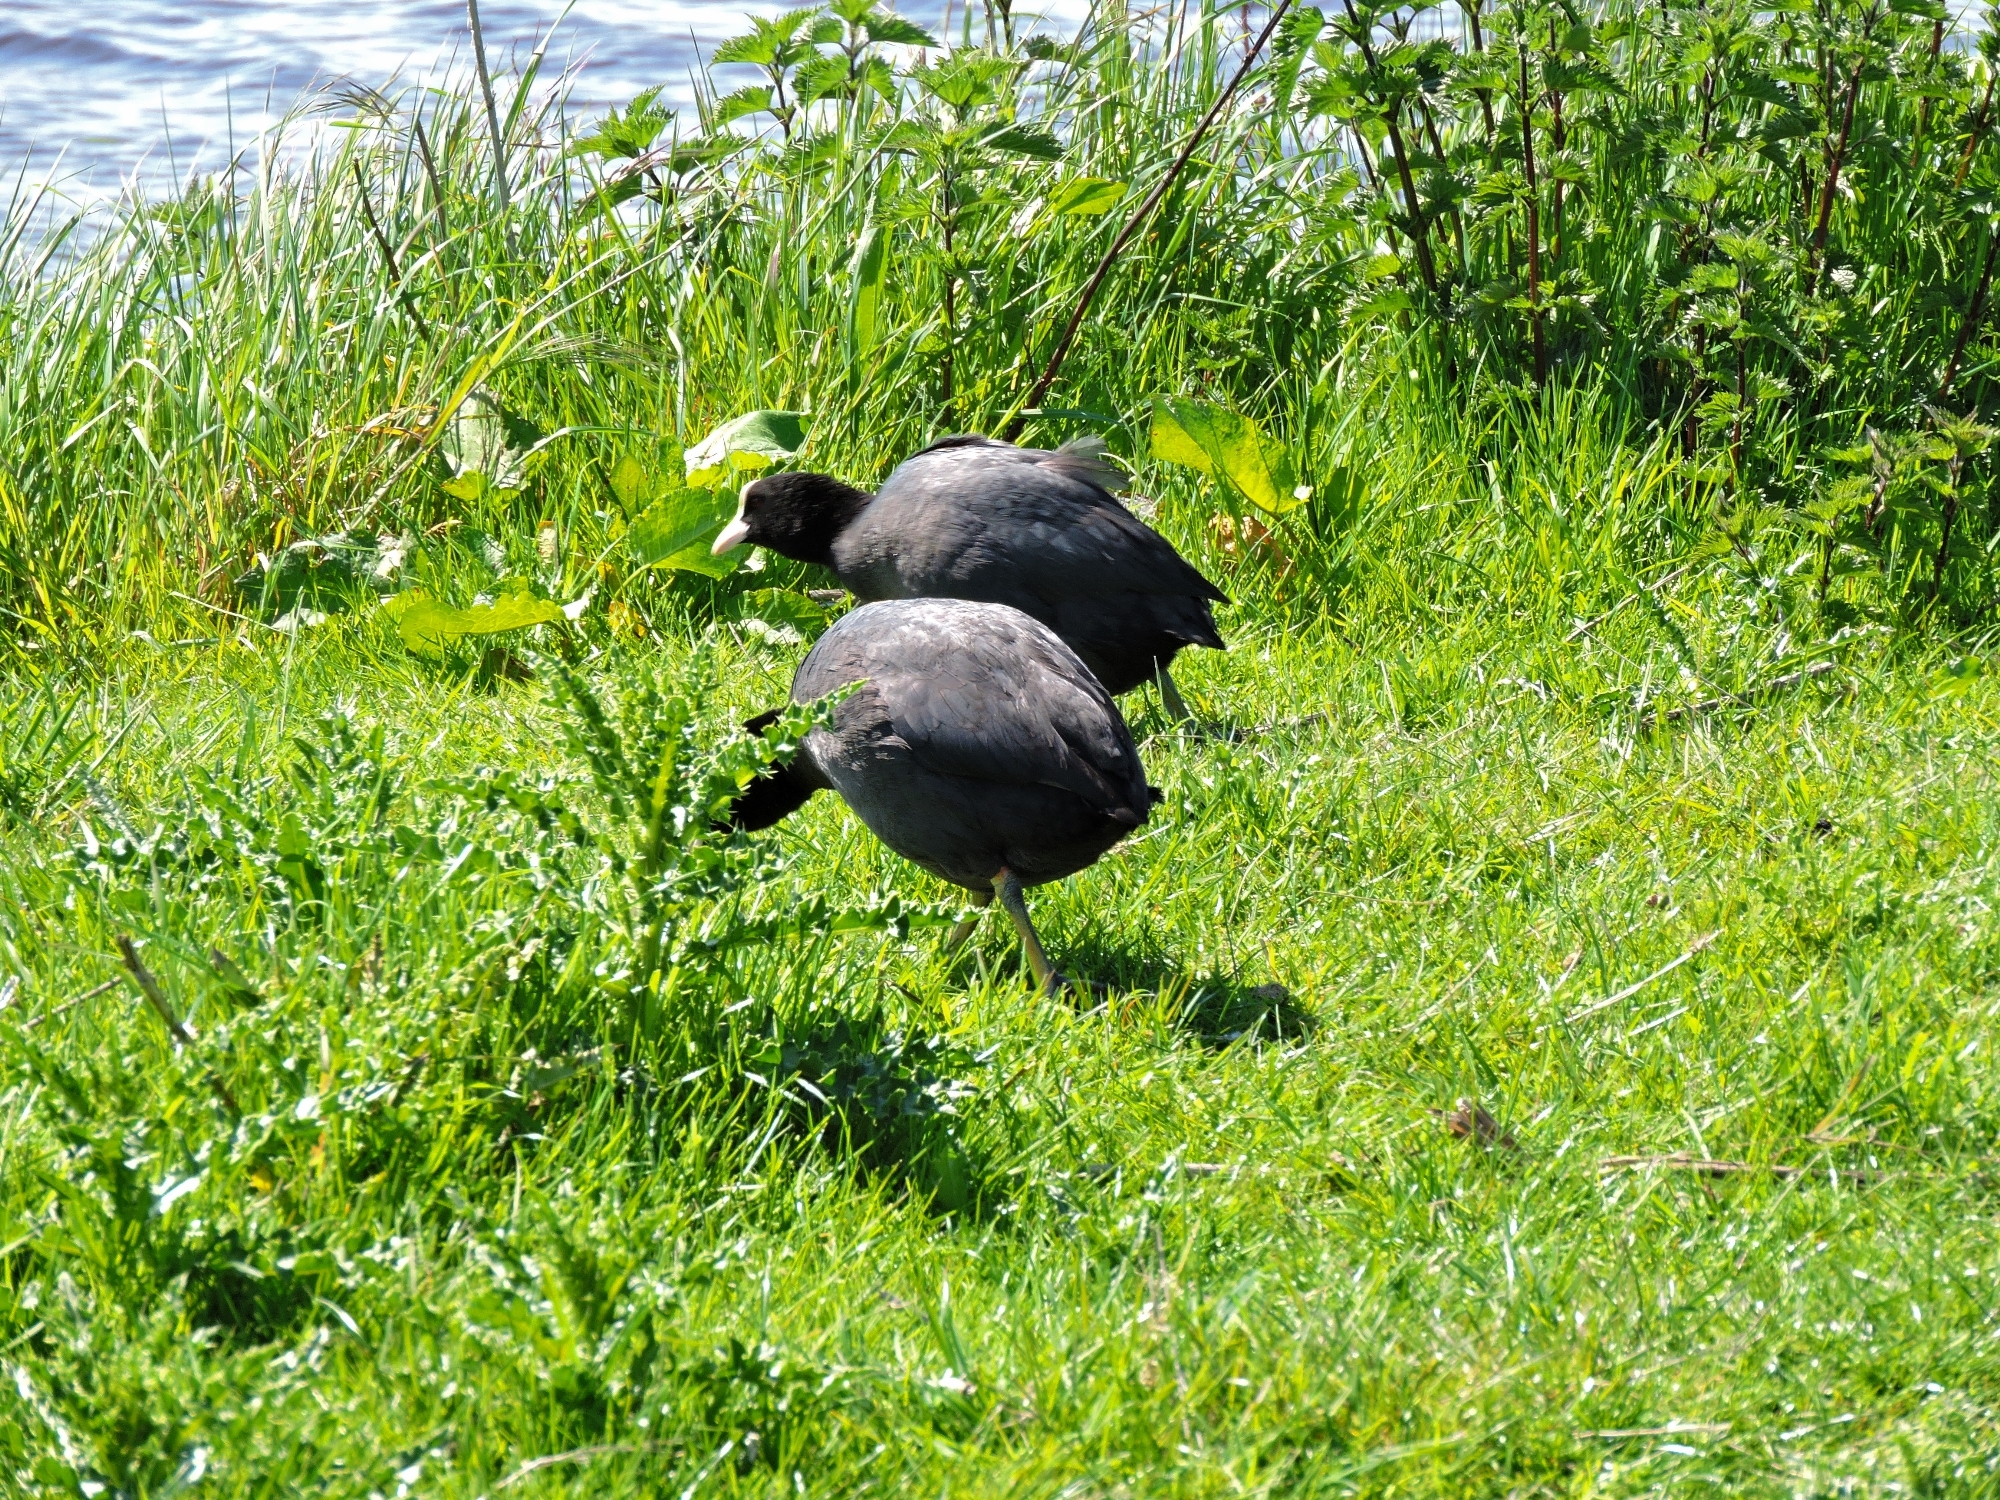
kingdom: Animalia
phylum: Chordata
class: Aves
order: Gruiformes
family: Rallidae
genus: Fulica
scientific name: Fulica atra
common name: Eurasian coot
